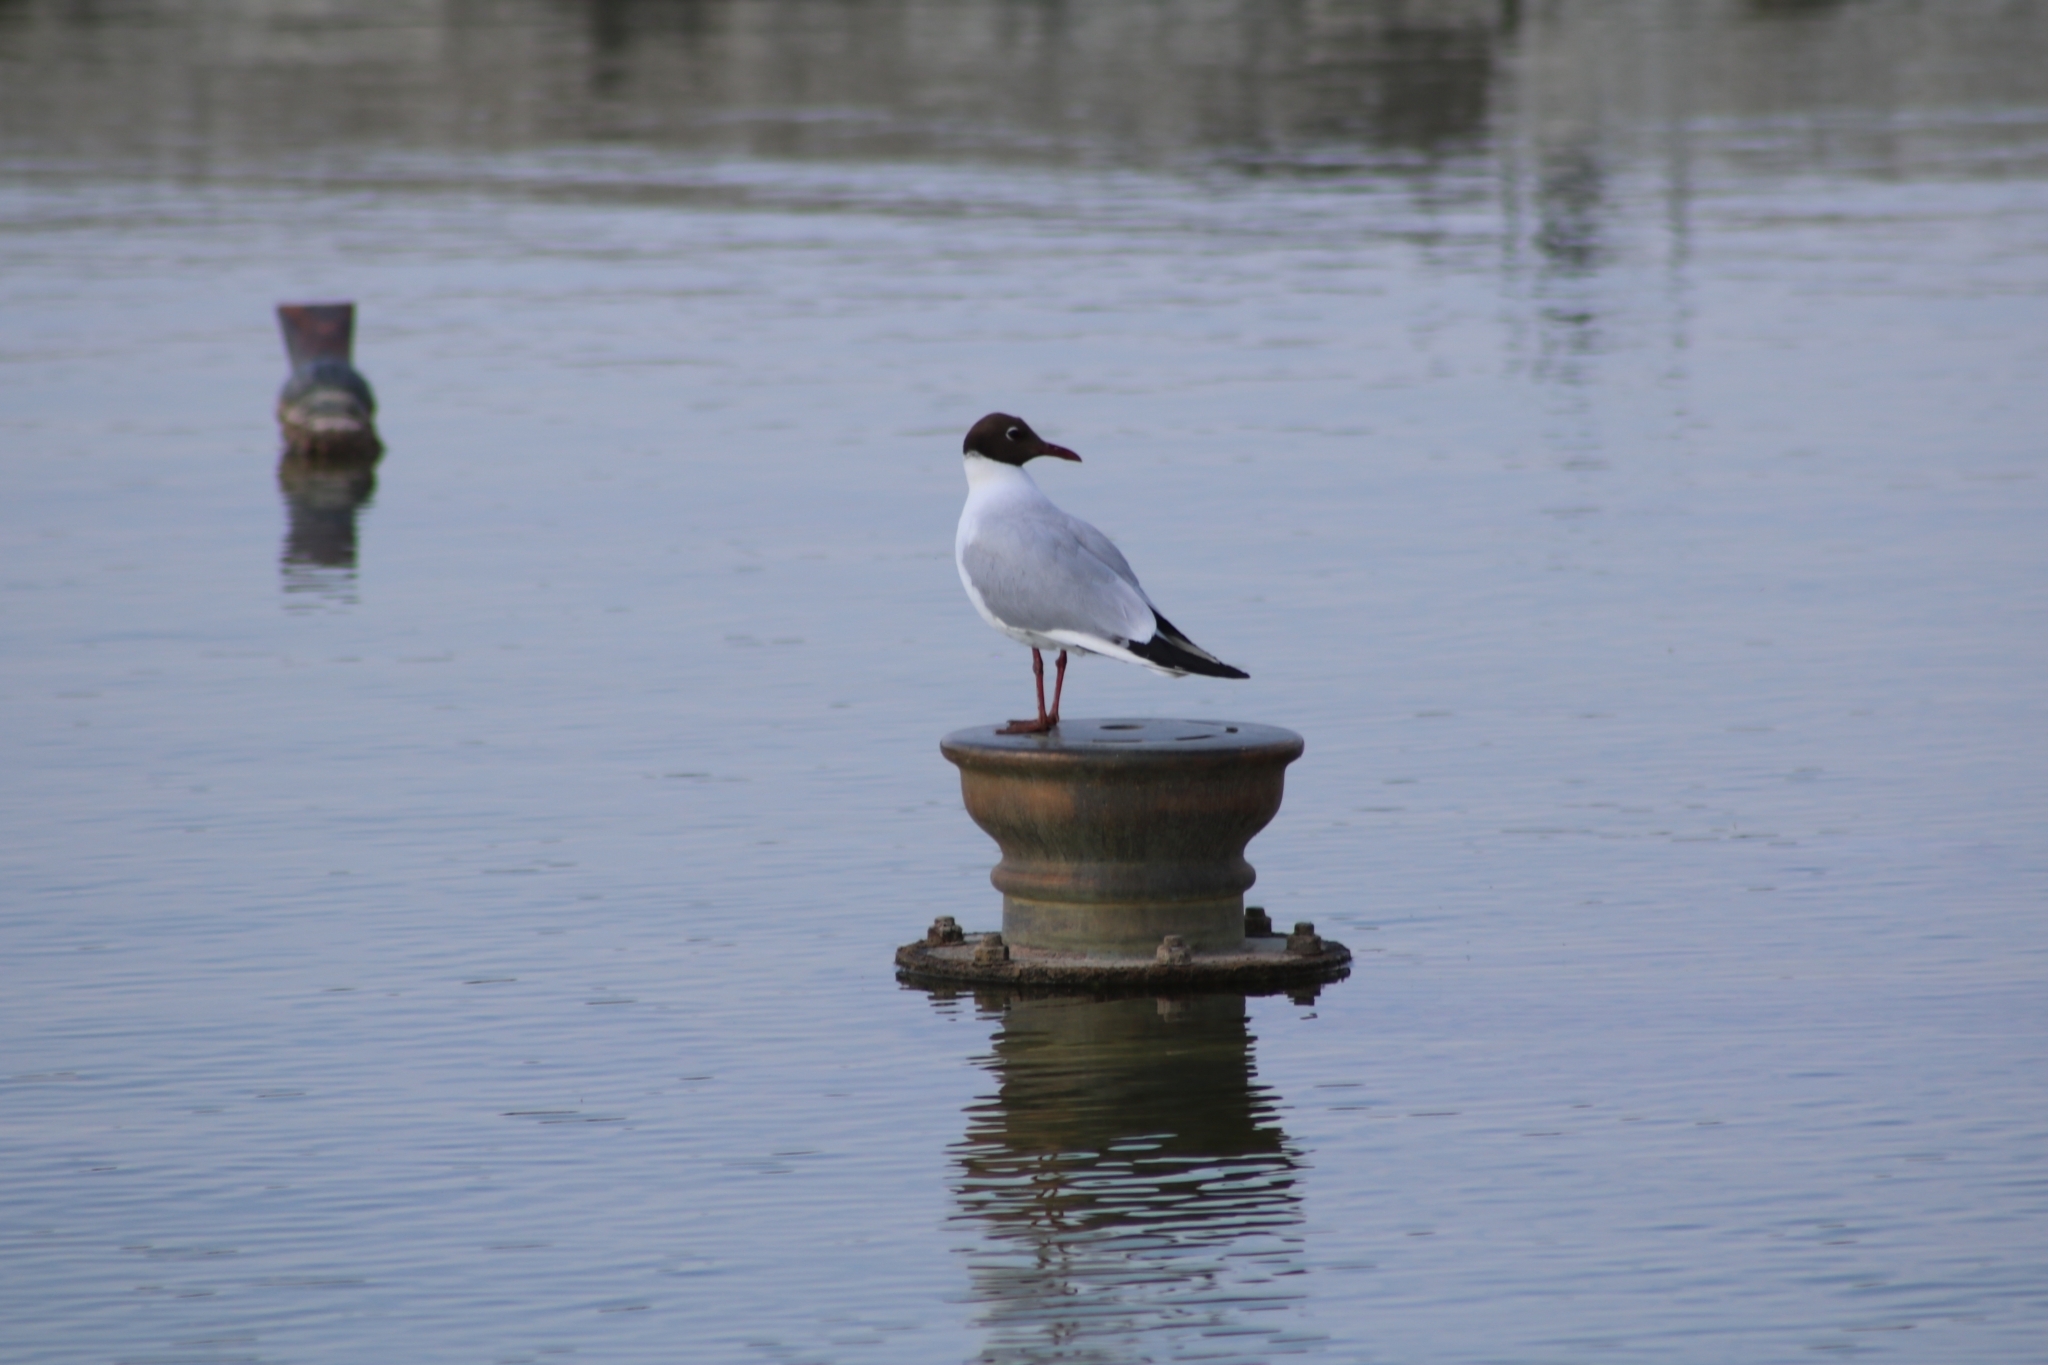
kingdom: Animalia
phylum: Chordata
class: Aves
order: Charadriiformes
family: Laridae
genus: Chroicocephalus
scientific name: Chroicocephalus ridibundus
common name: Black-headed gull
